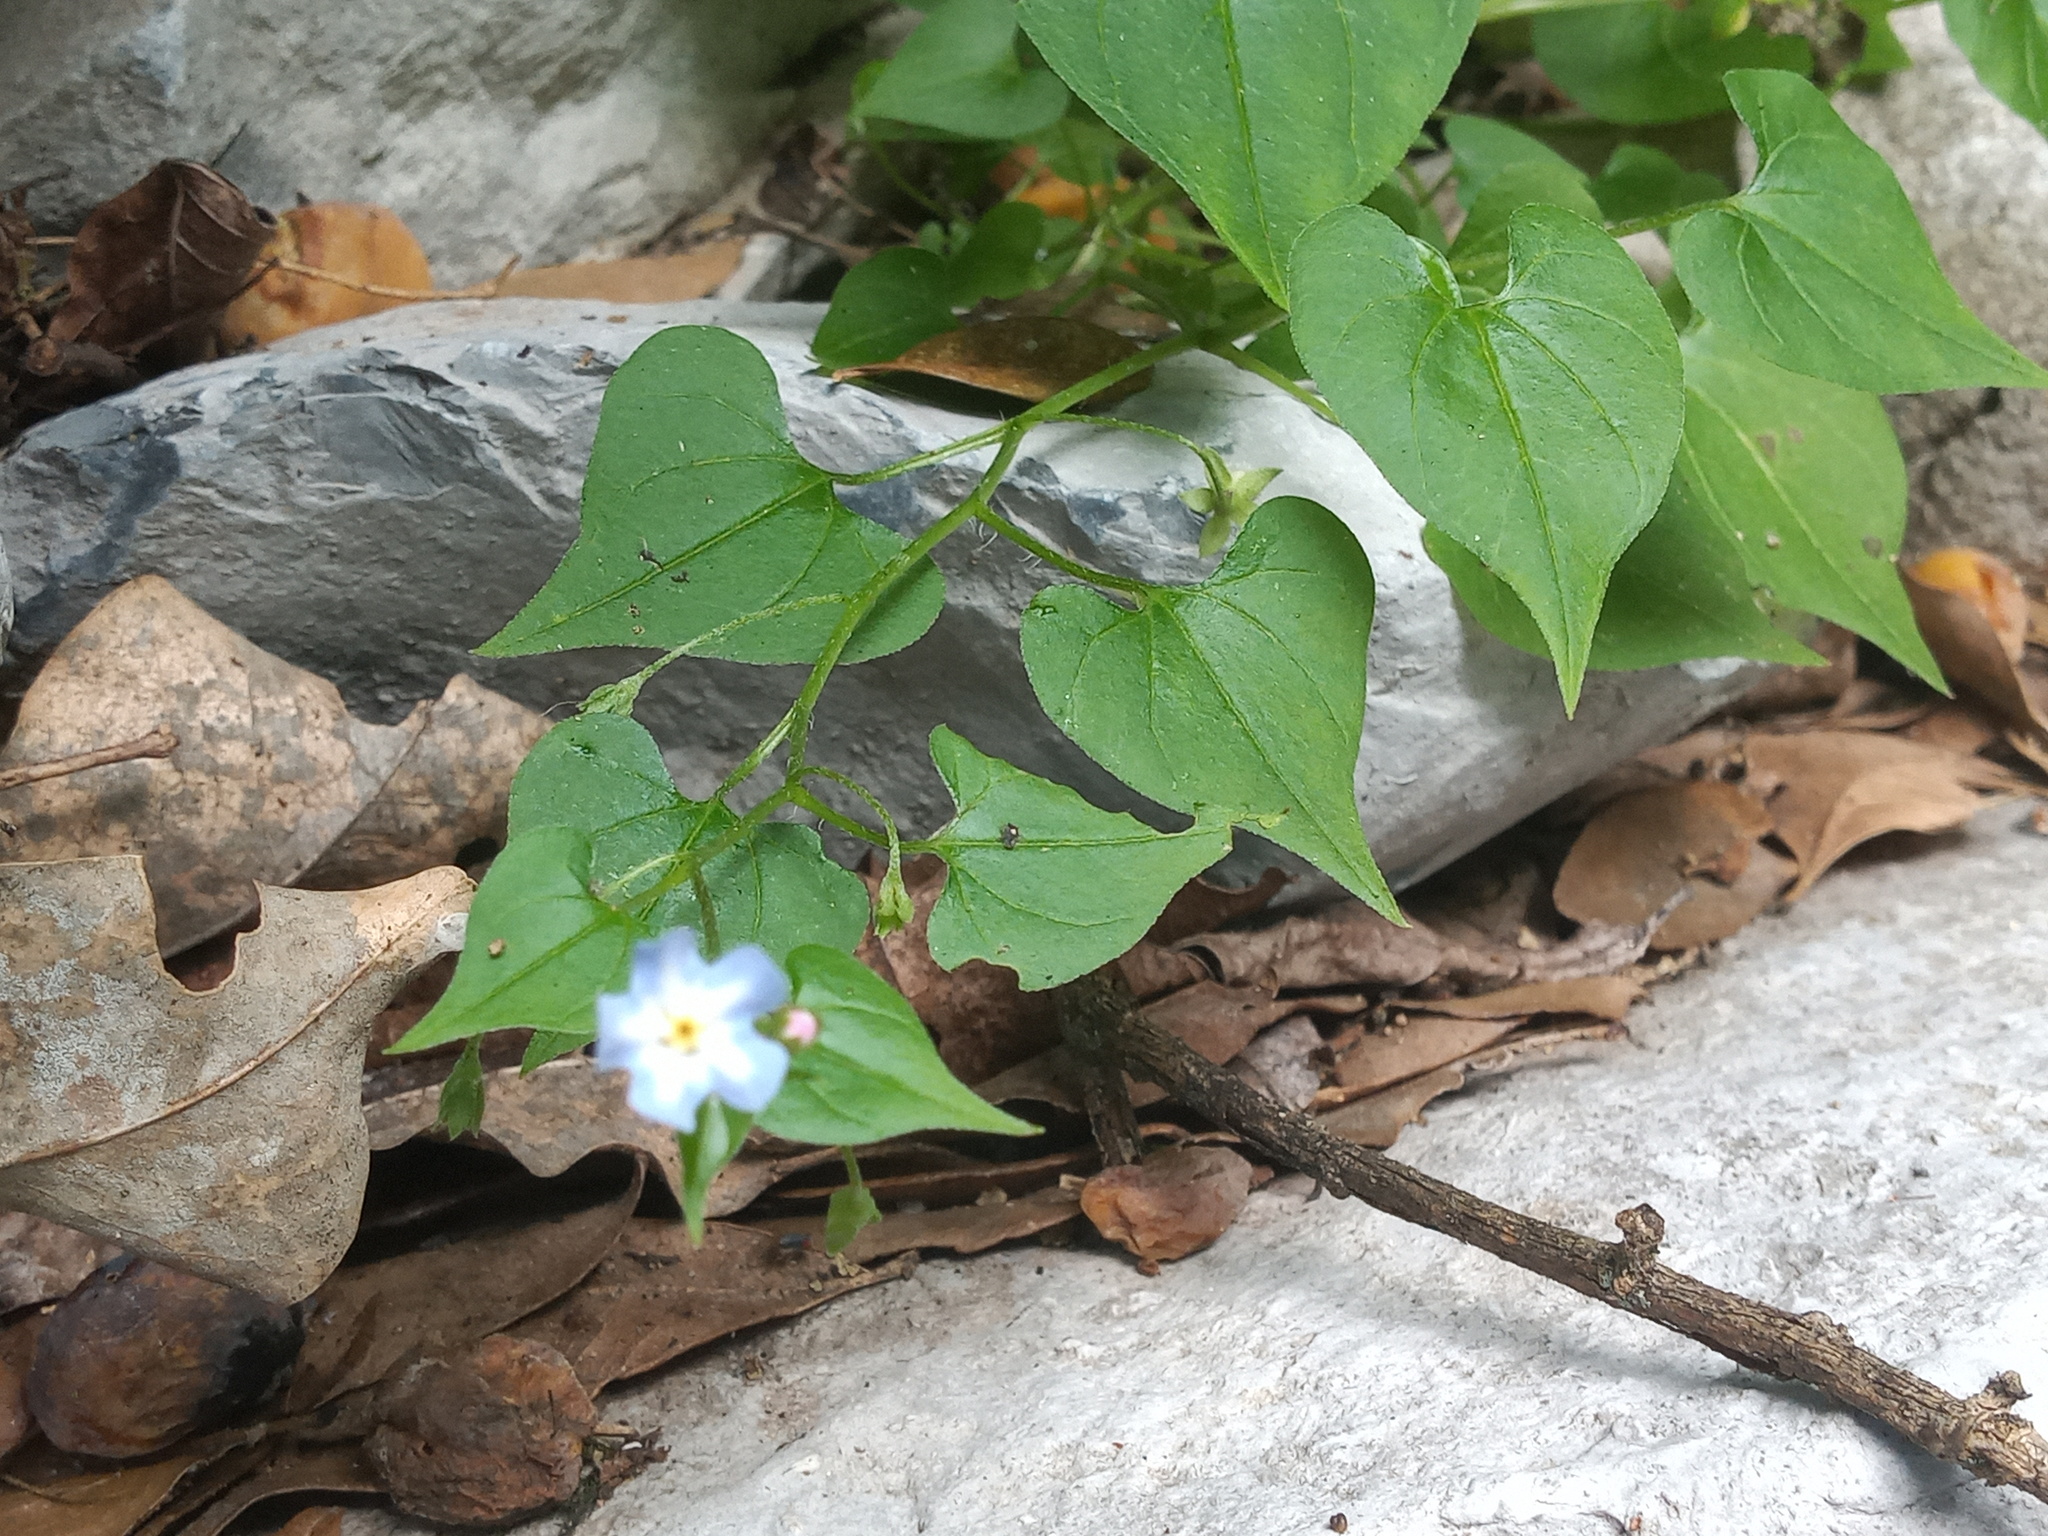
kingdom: Plantae
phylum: Tracheophyta
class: Magnoliopsida
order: Boraginales
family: Boraginaceae
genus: Mimophytum
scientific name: Mimophytum cardiophyllum
